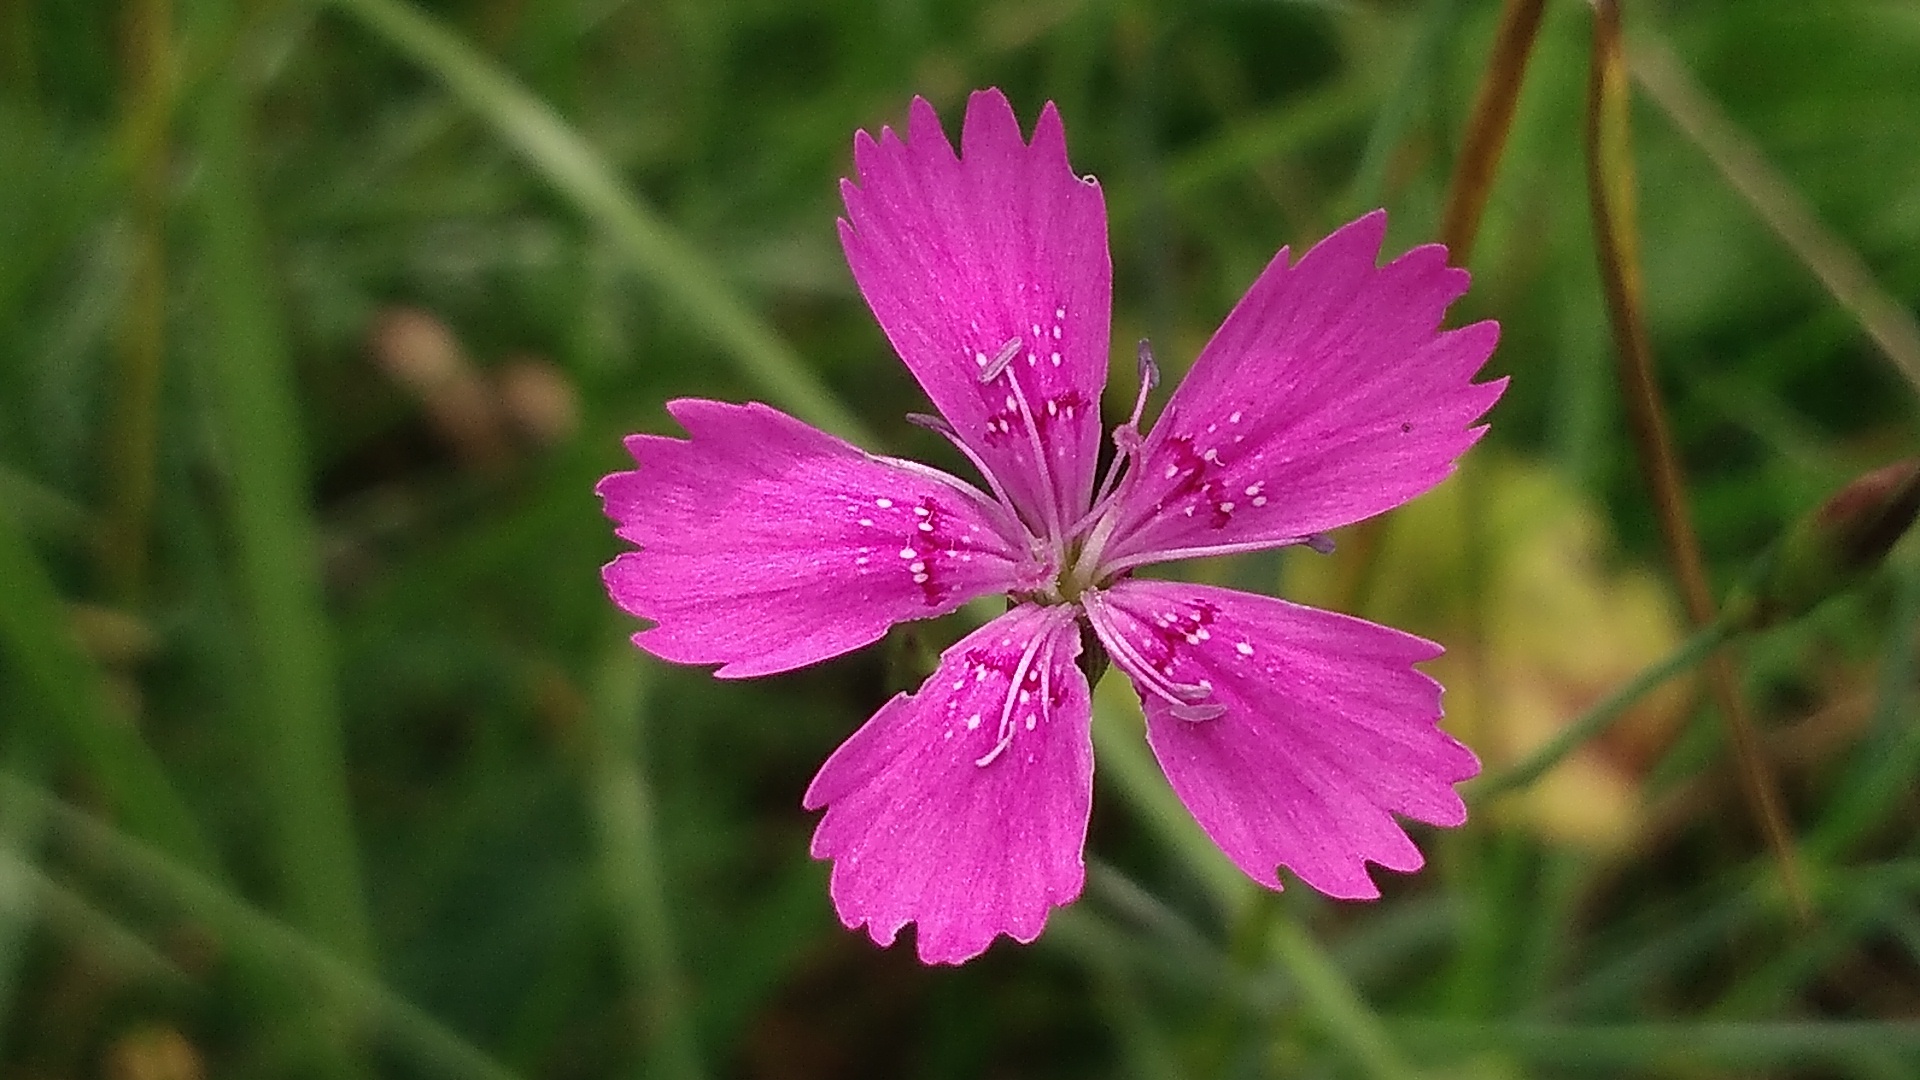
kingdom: Plantae
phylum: Tracheophyta
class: Magnoliopsida
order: Caryophyllales
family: Caryophyllaceae
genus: Dianthus
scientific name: Dianthus deltoides
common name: Maiden pink
